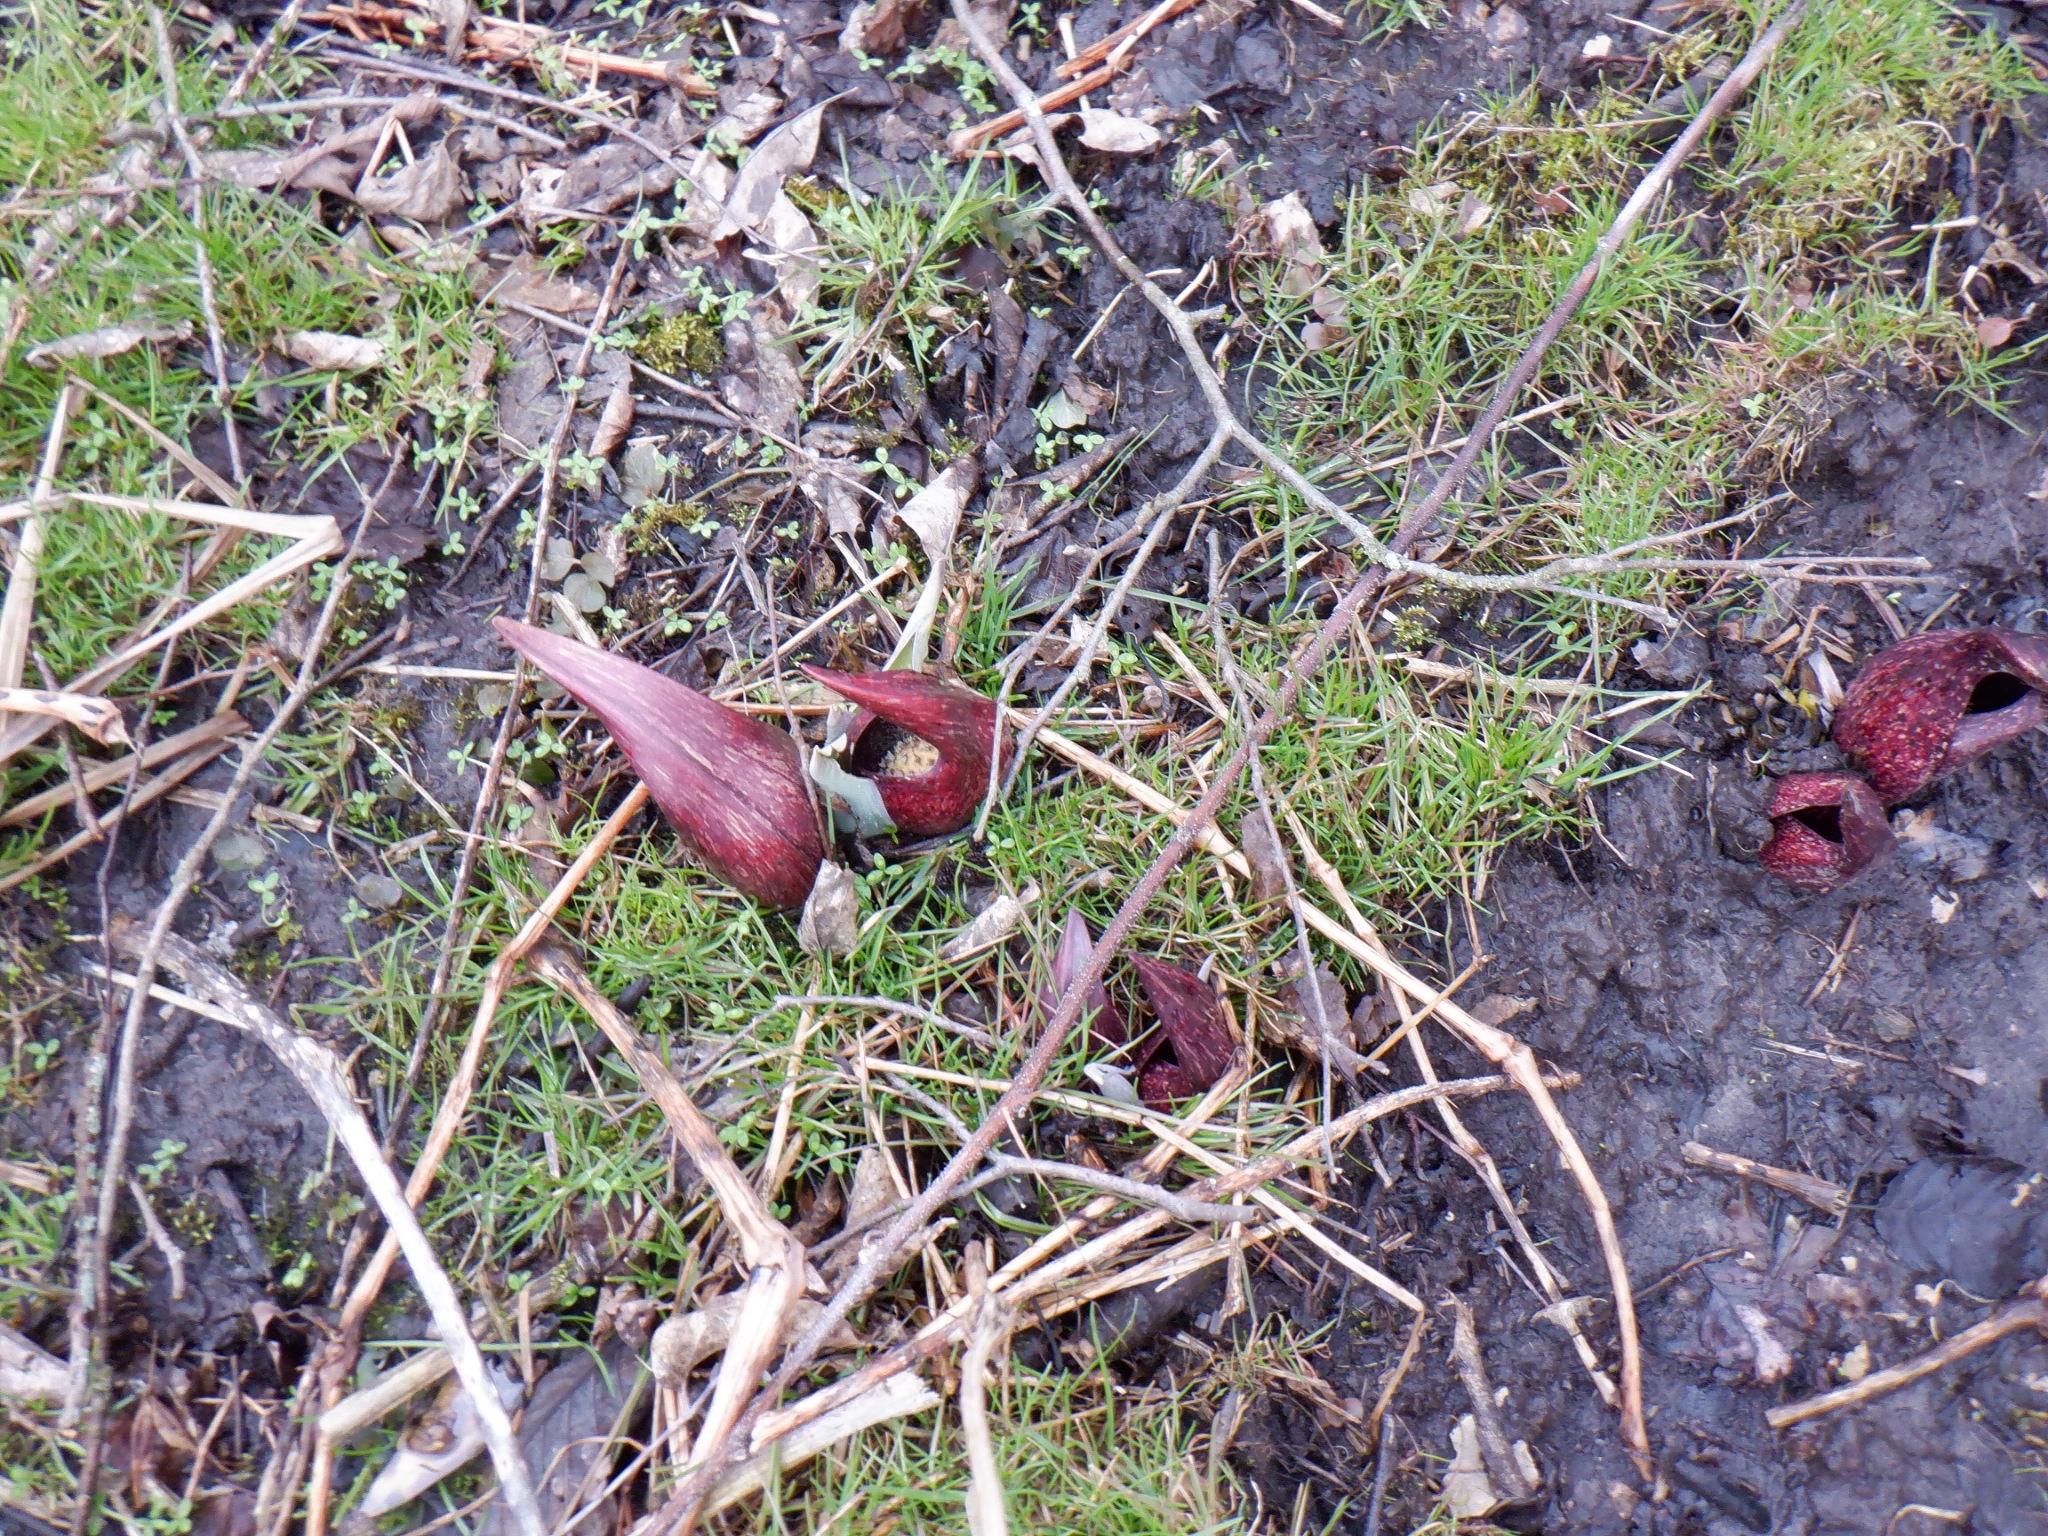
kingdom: Plantae
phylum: Tracheophyta
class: Liliopsida
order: Alismatales
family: Araceae
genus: Symplocarpus
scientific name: Symplocarpus foetidus
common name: Eastern skunk cabbage
